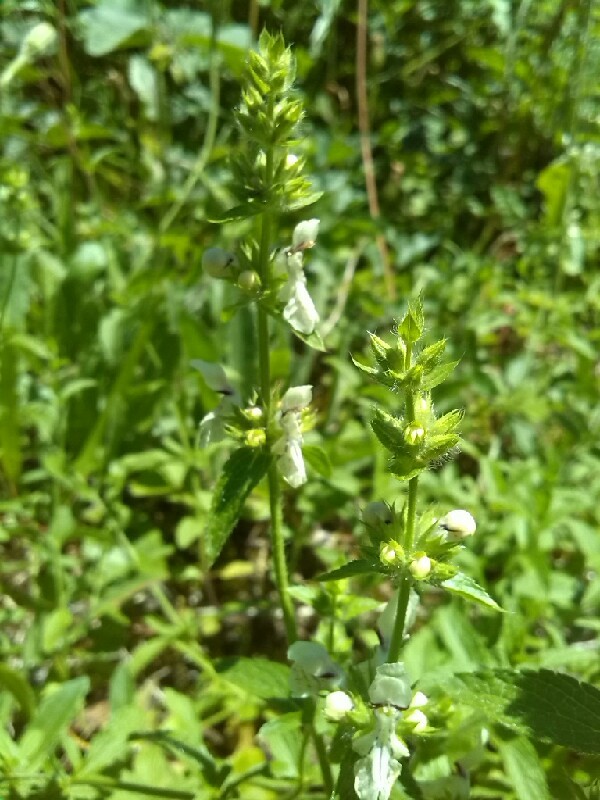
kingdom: Plantae
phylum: Tracheophyta
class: Magnoliopsida
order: Lamiales
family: Lamiaceae
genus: Stachys
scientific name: Stachys recta
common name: Perennial yellow-woundwort
